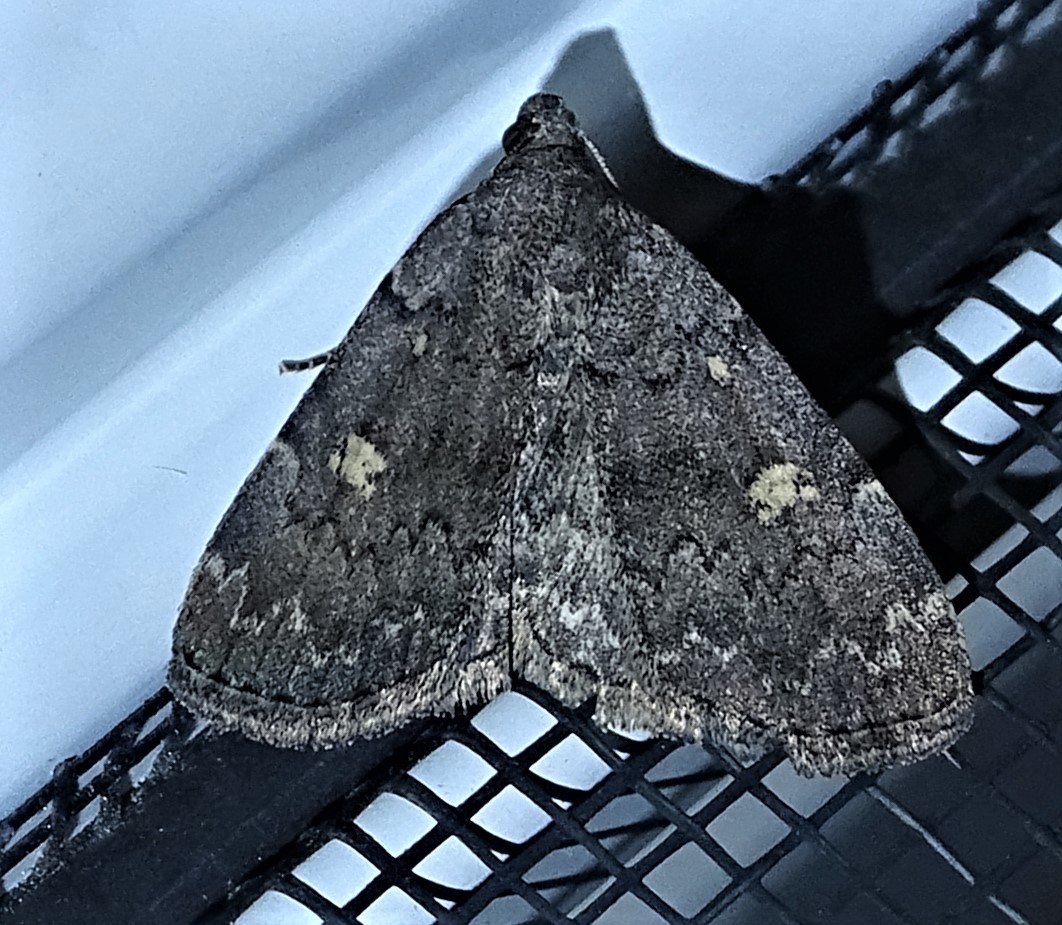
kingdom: Animalia
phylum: Arthropoda
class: Insecta
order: Lepidoptera
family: Erebidae
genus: Idia
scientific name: Idia aemula
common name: Common idia moth
